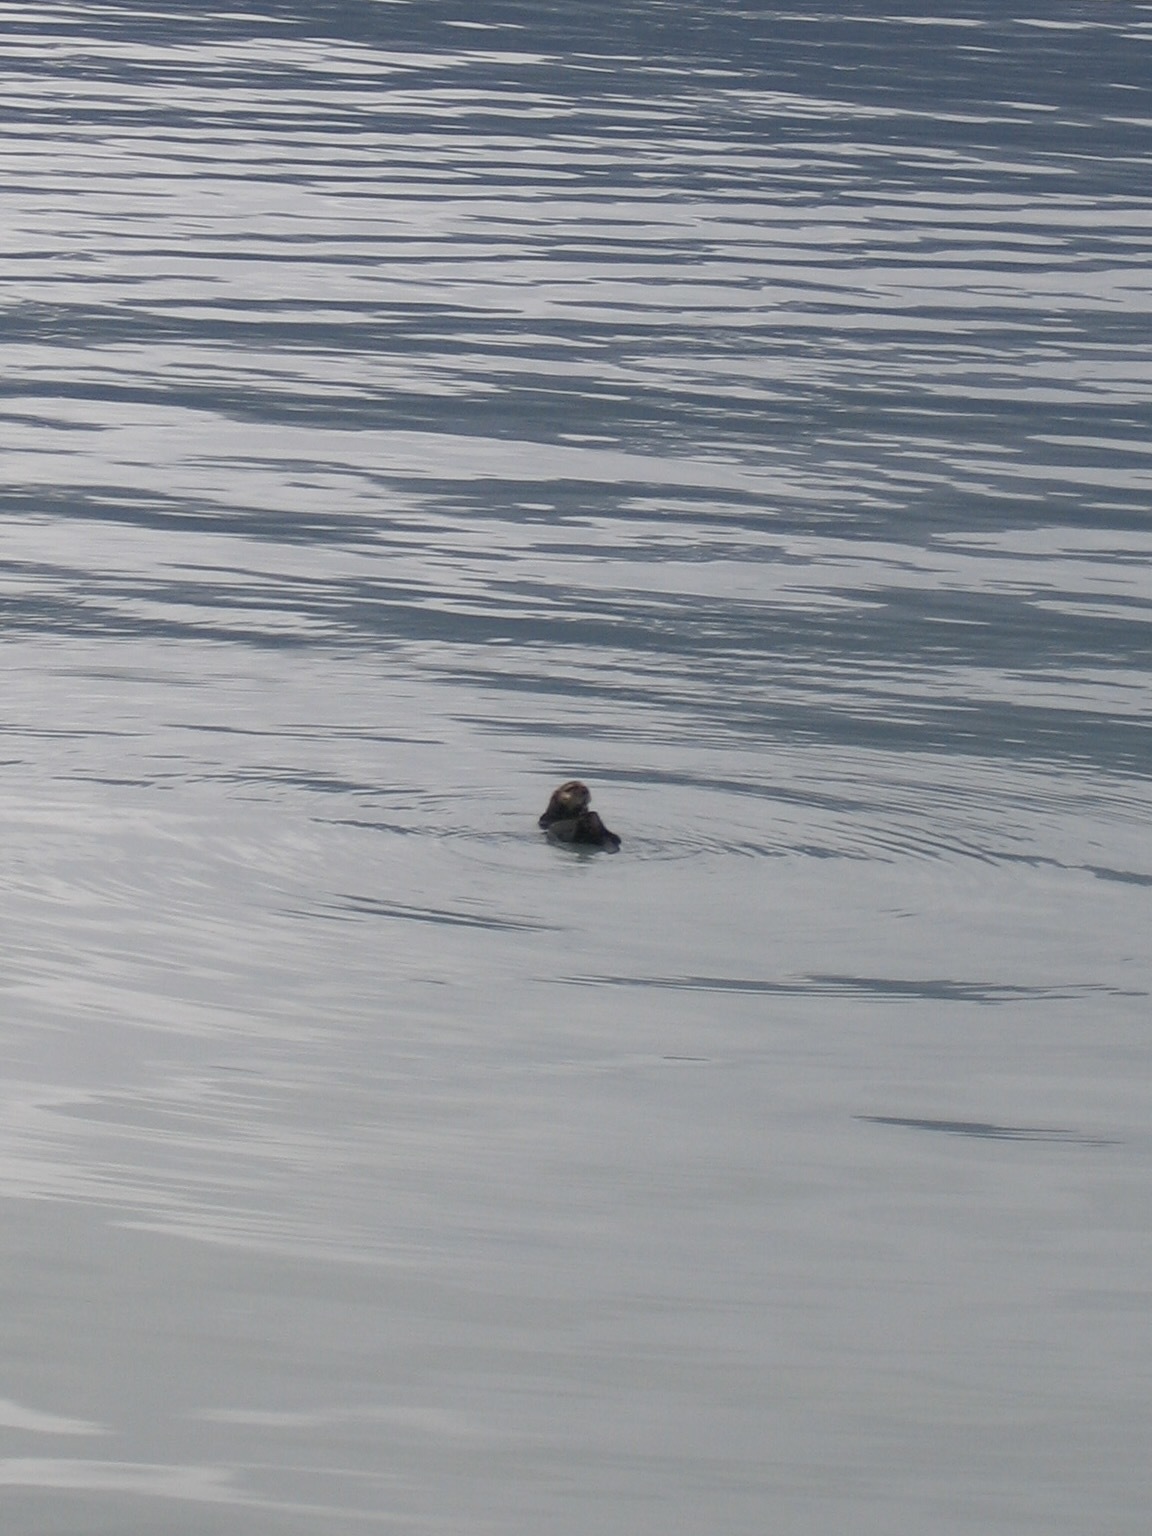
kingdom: Animalia
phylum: Chordata
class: Mammalia
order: Carnivora
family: Mustelidae
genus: Enhydra
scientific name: Enhydra lutris
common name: Sea otter
